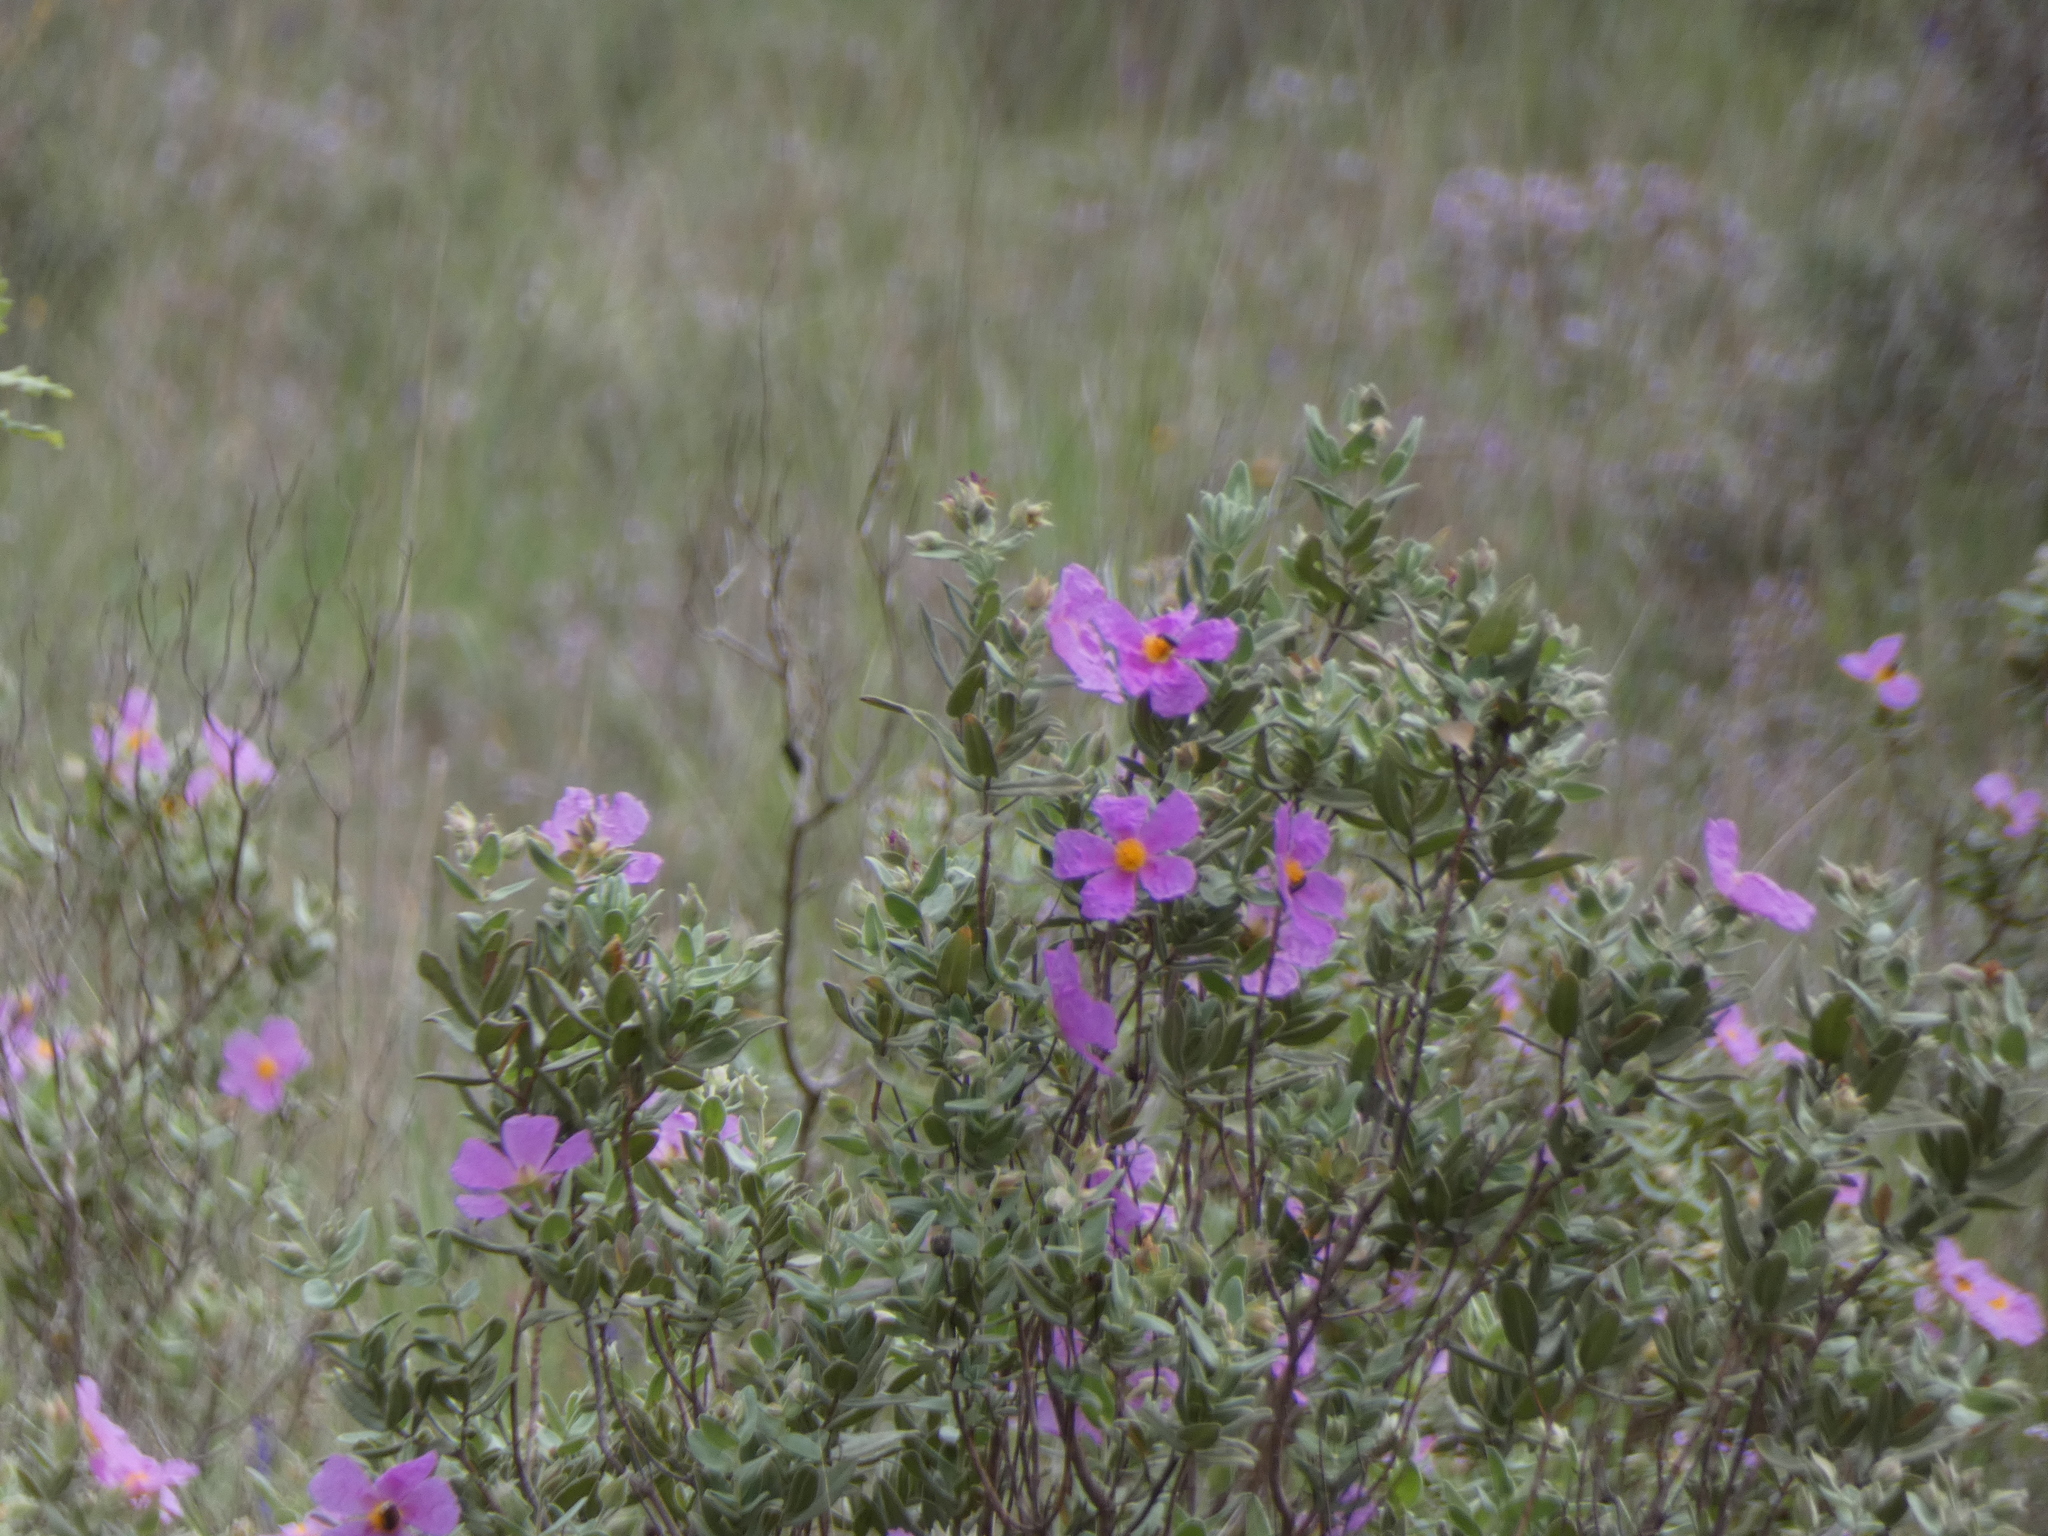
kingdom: Plantae
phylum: Tracheophyta
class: Magnoliopsida
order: Malvales
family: Cistaceae
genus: Cistus
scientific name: Cistus albidus
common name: White-leaf rock-rose
